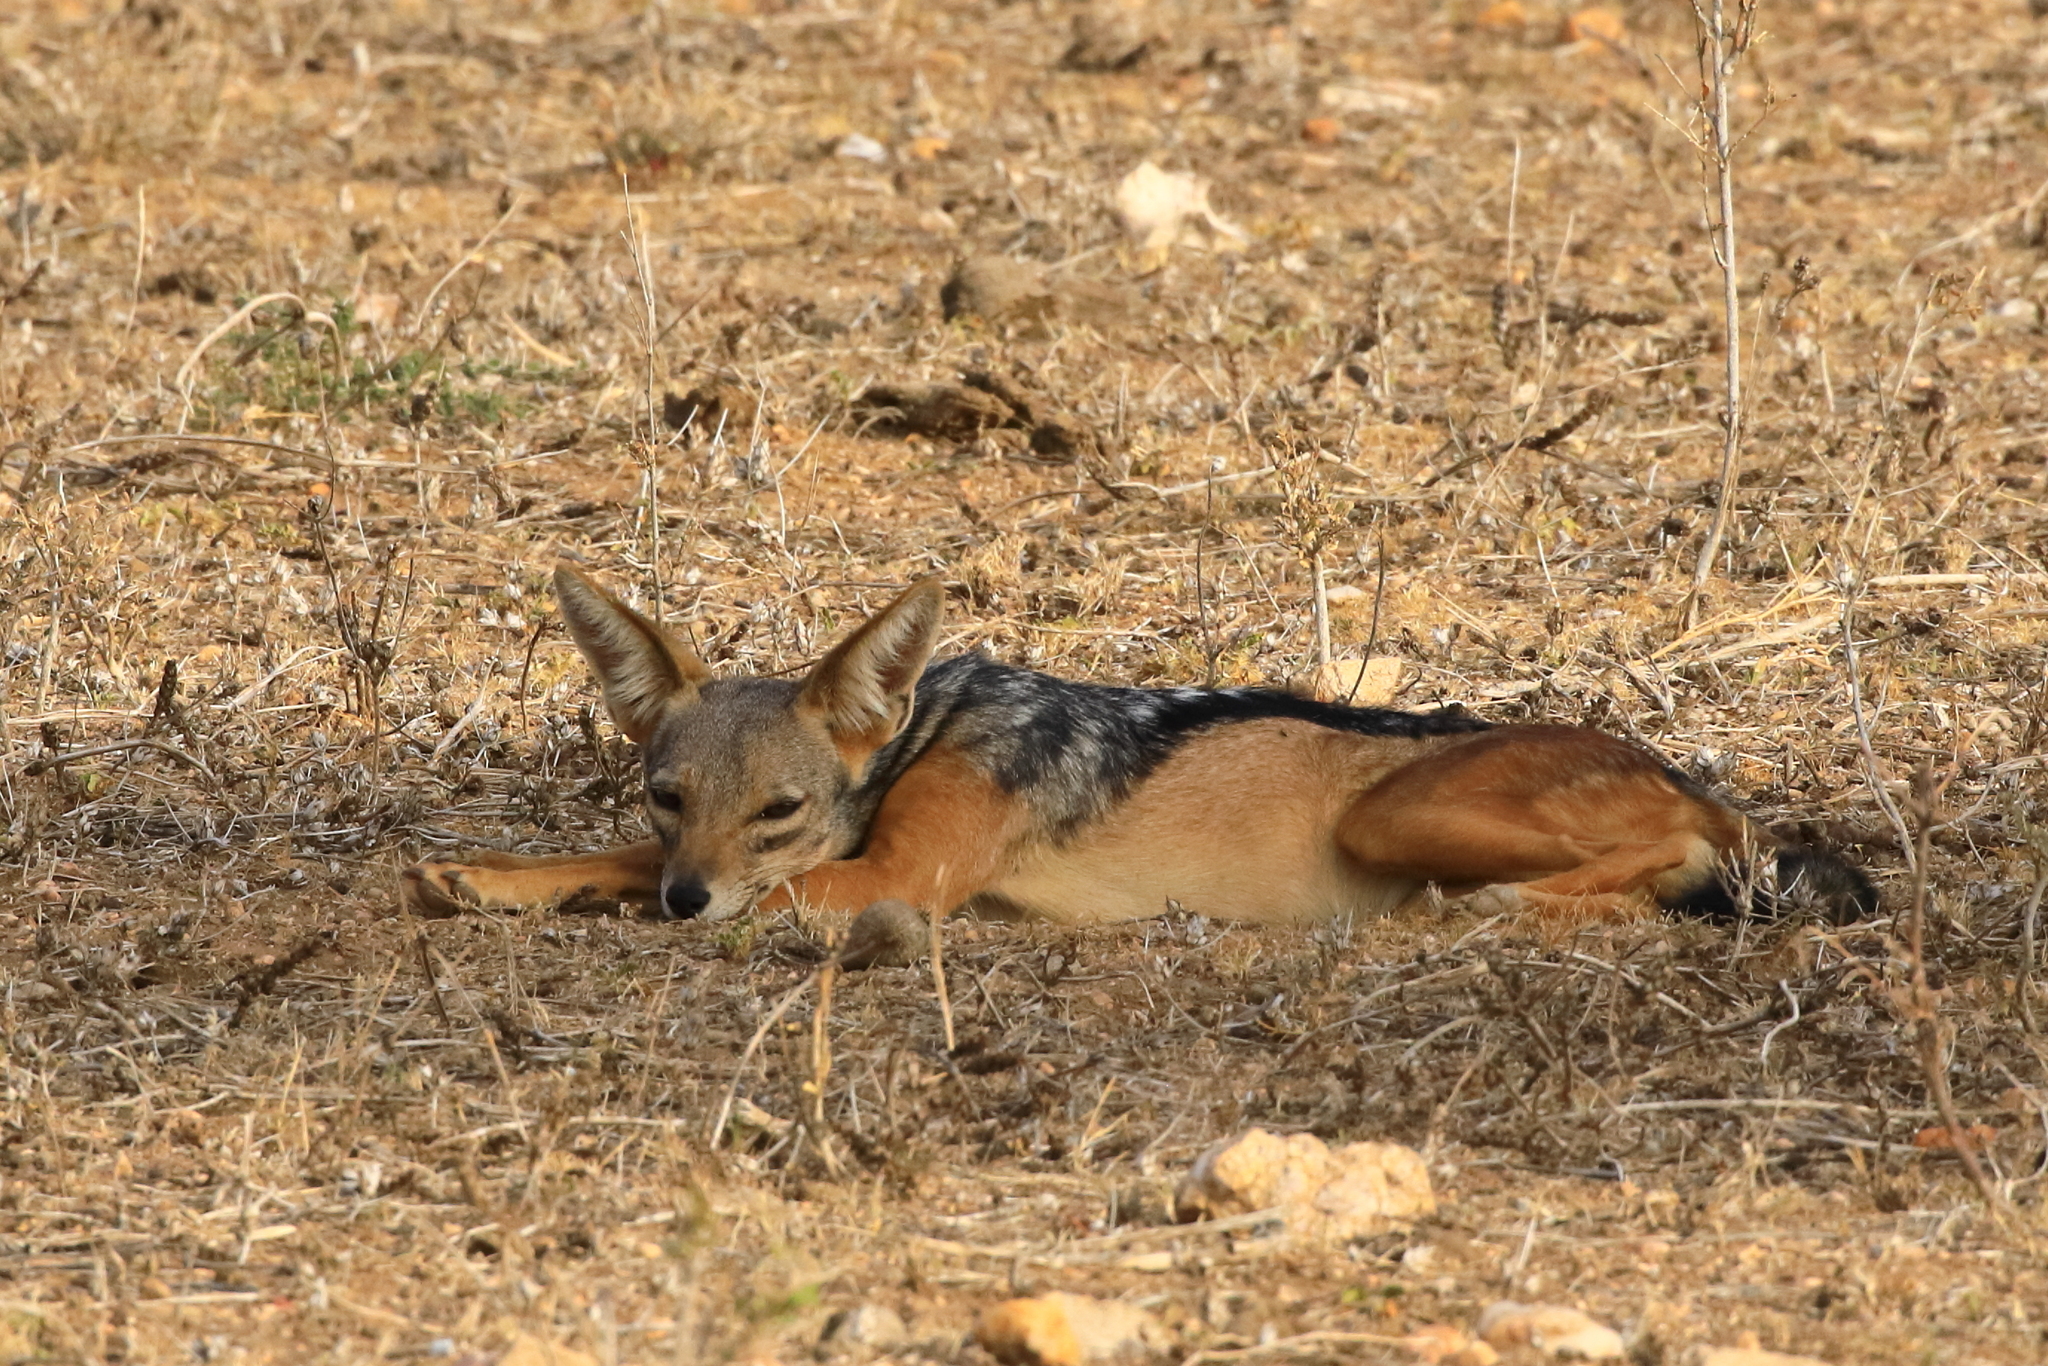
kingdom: Animalia
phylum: Chordata
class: Mammalia
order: Carnivora
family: Canidae
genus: Lupulella
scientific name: Lupulella
